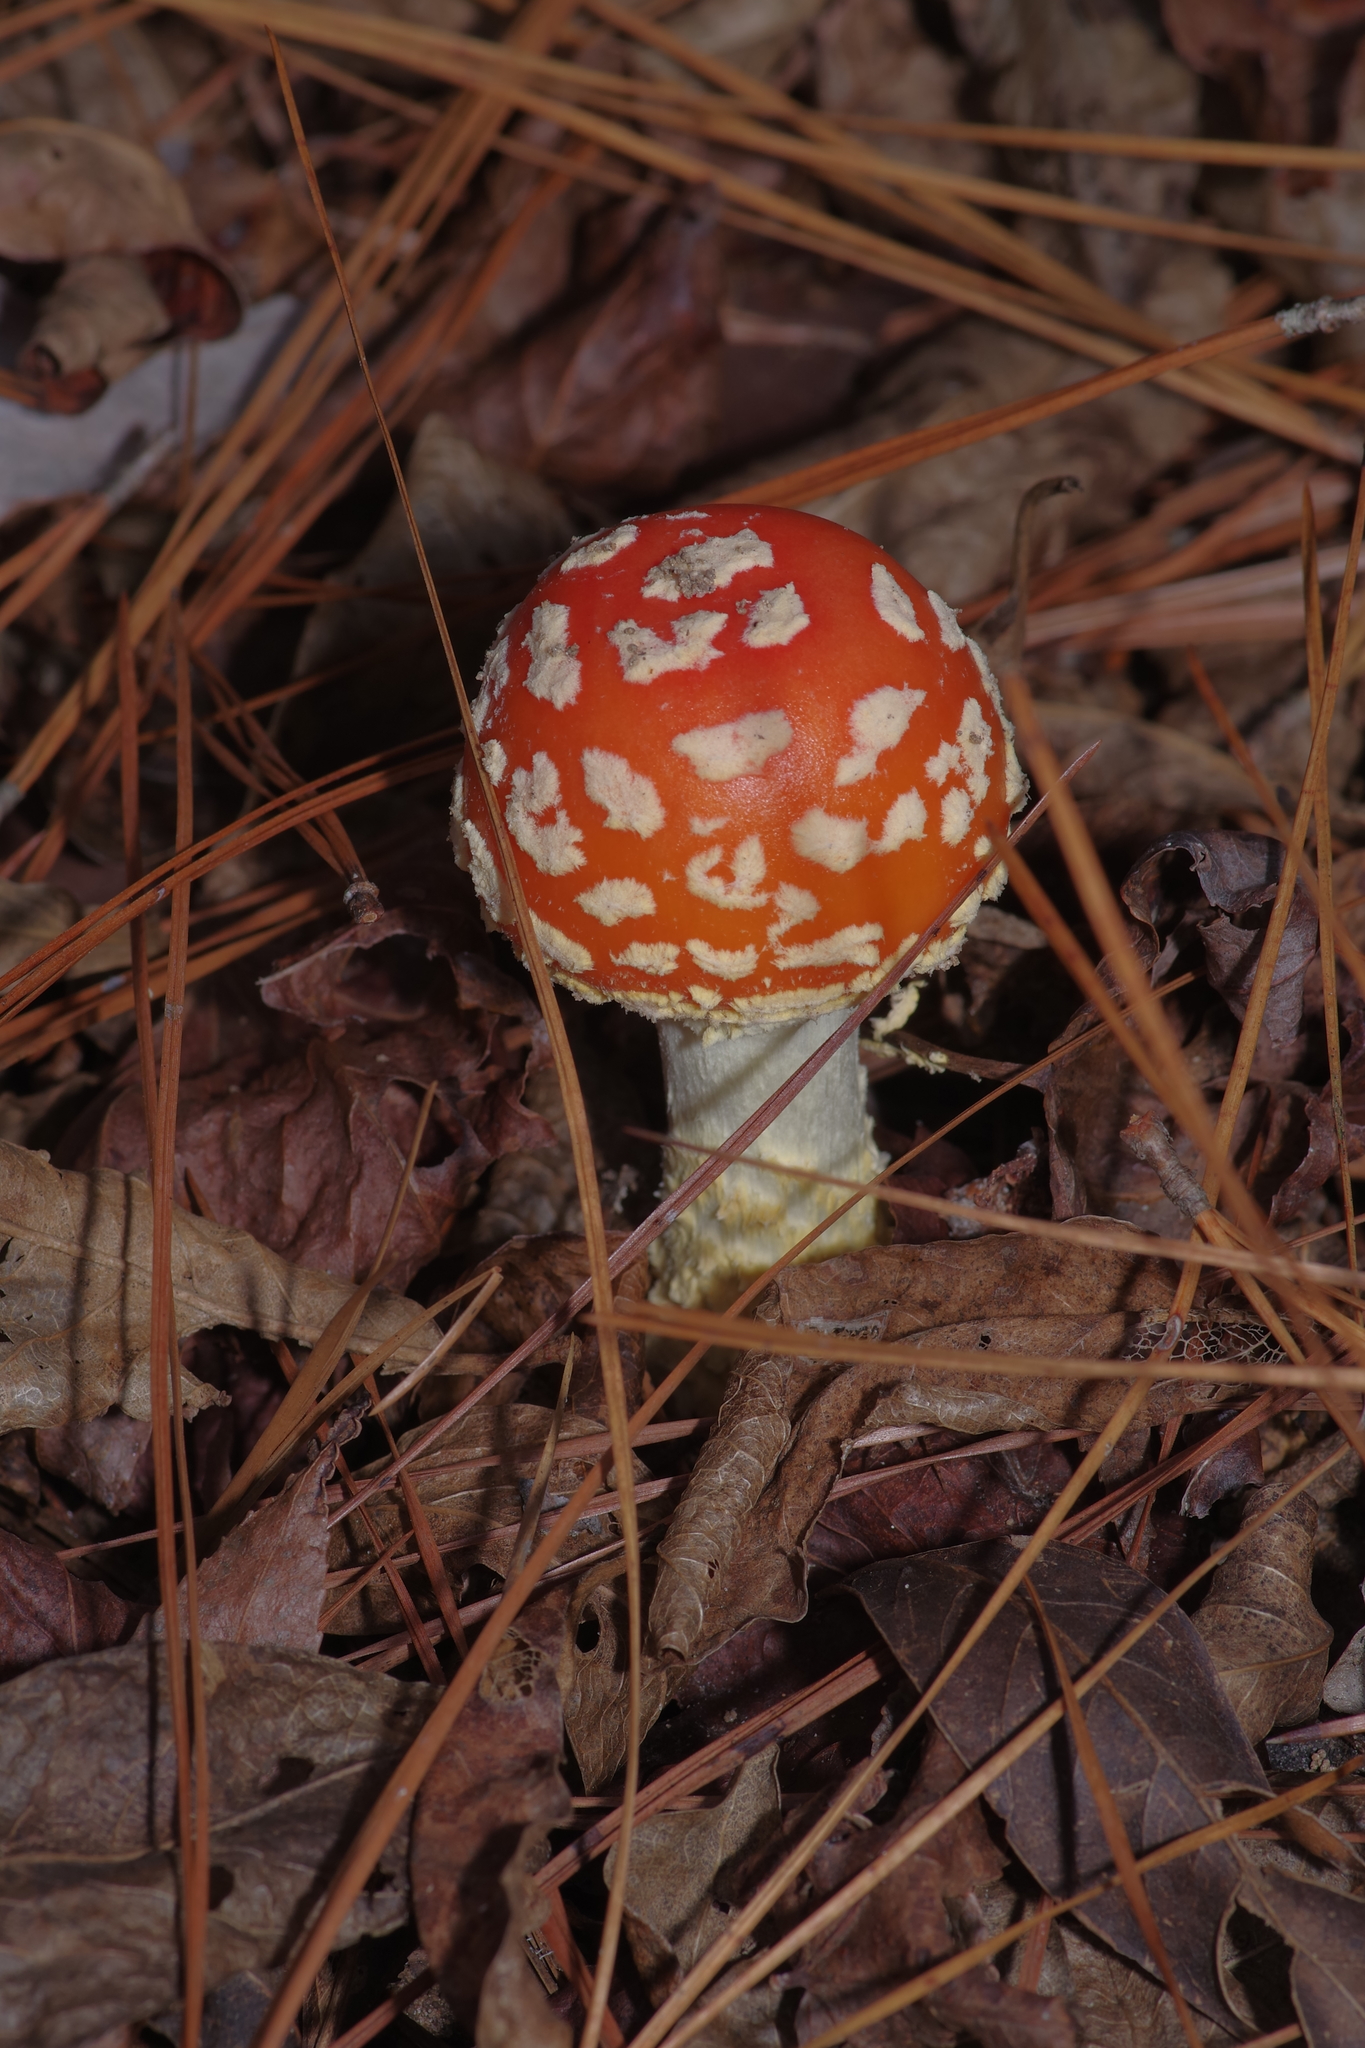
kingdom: Fungi
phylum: Basidiomycota
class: Agaricomycetes
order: Agaricales
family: Amanitaceae
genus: Amanita
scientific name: Amanita persicina
